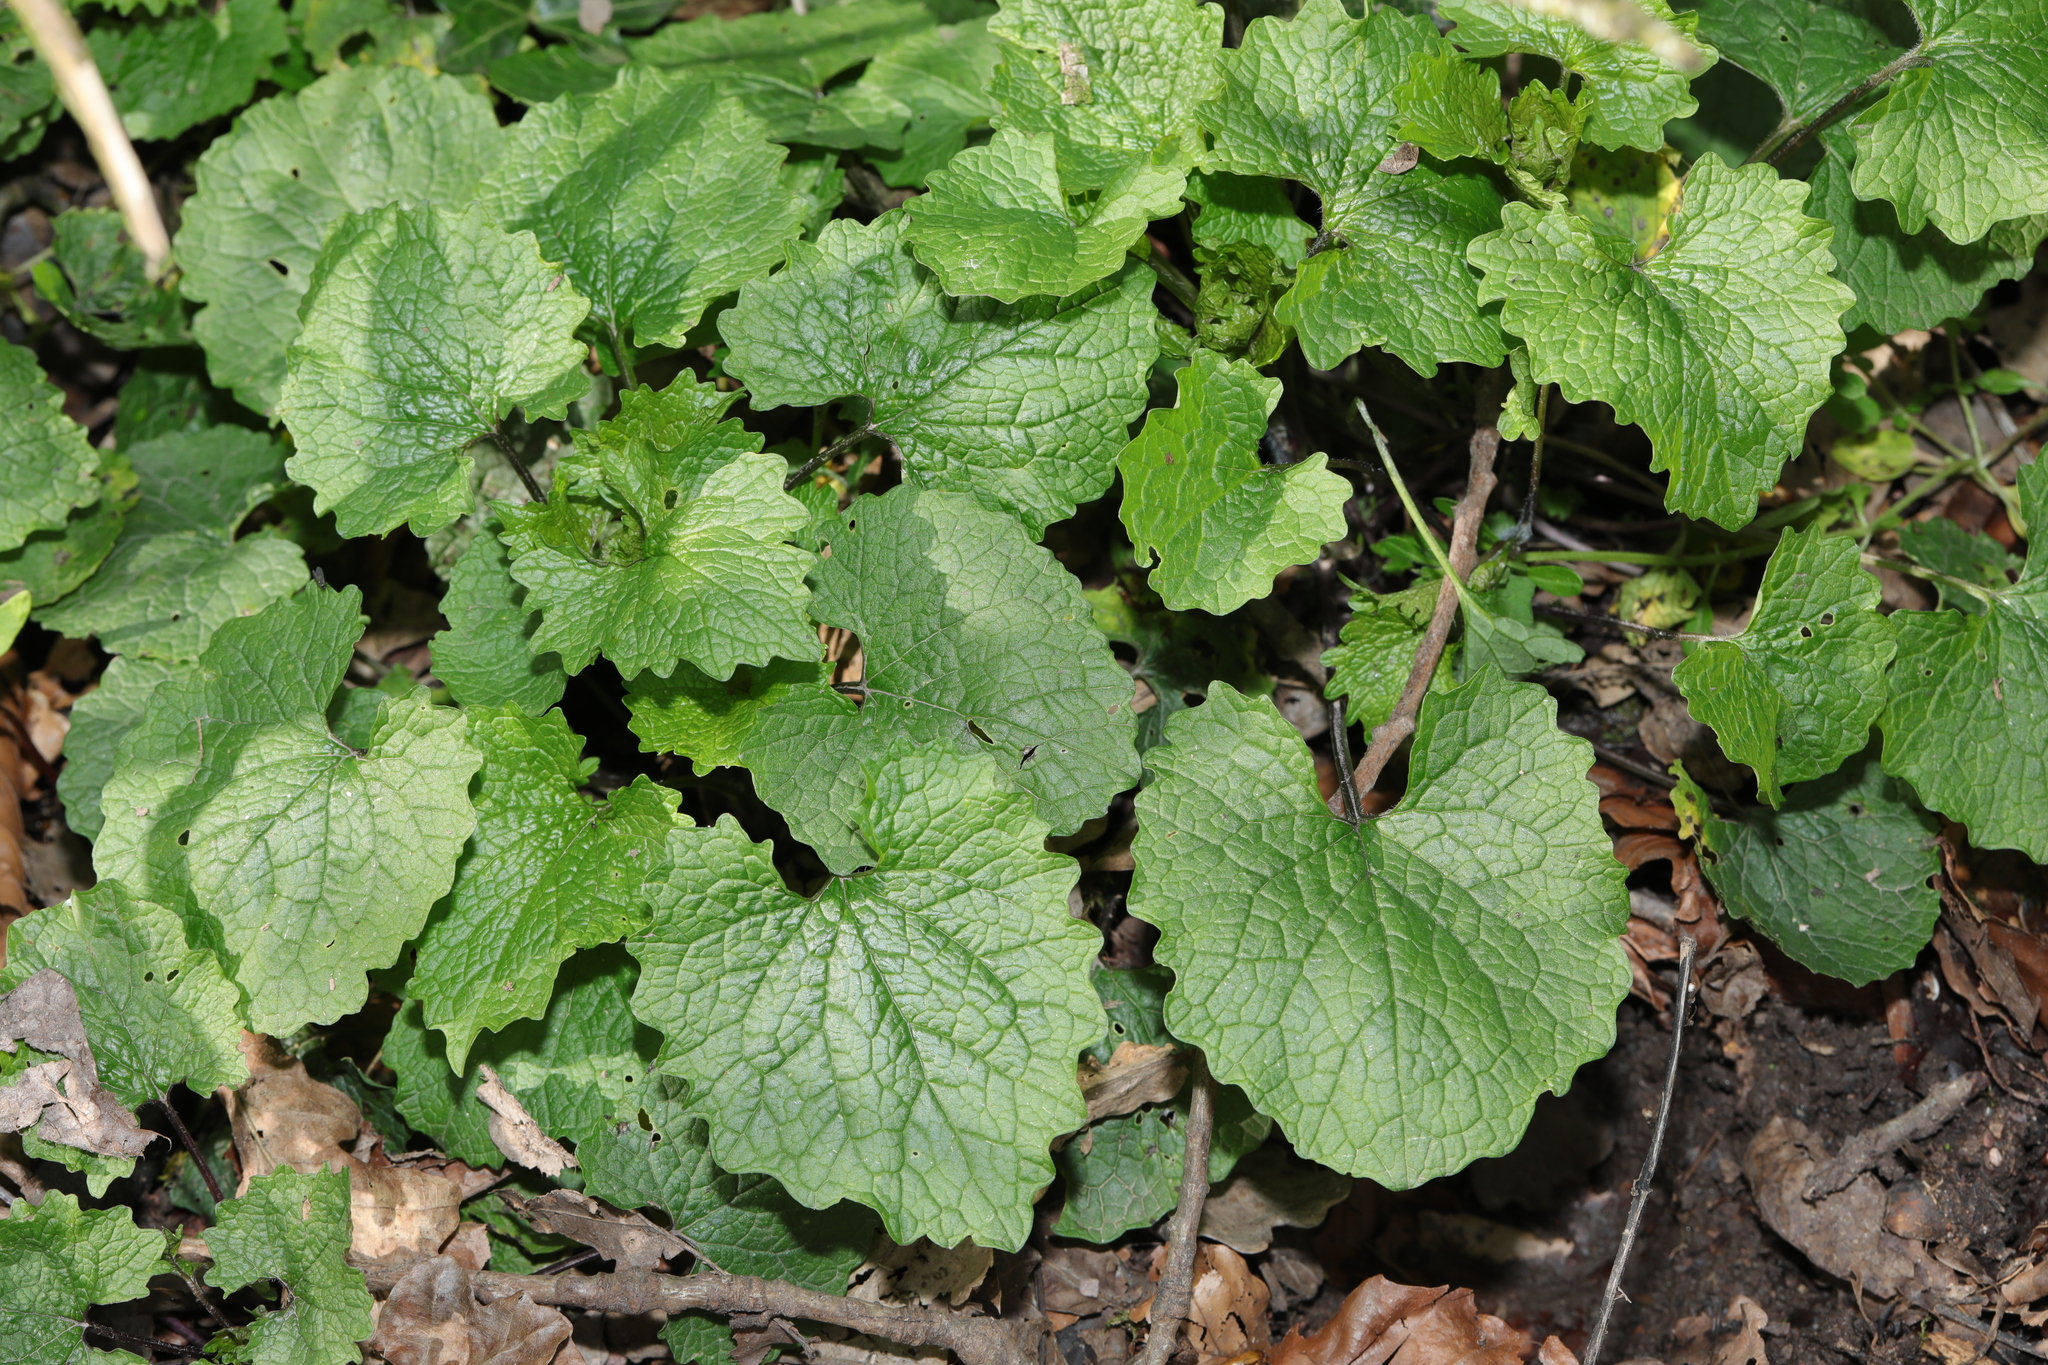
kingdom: Plantae
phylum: Tracheophyta
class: Magnoliopsida
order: Brassicales
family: Brassicaceae
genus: Alliaria
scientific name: Alliaria petiolata
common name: Garlic mustard
